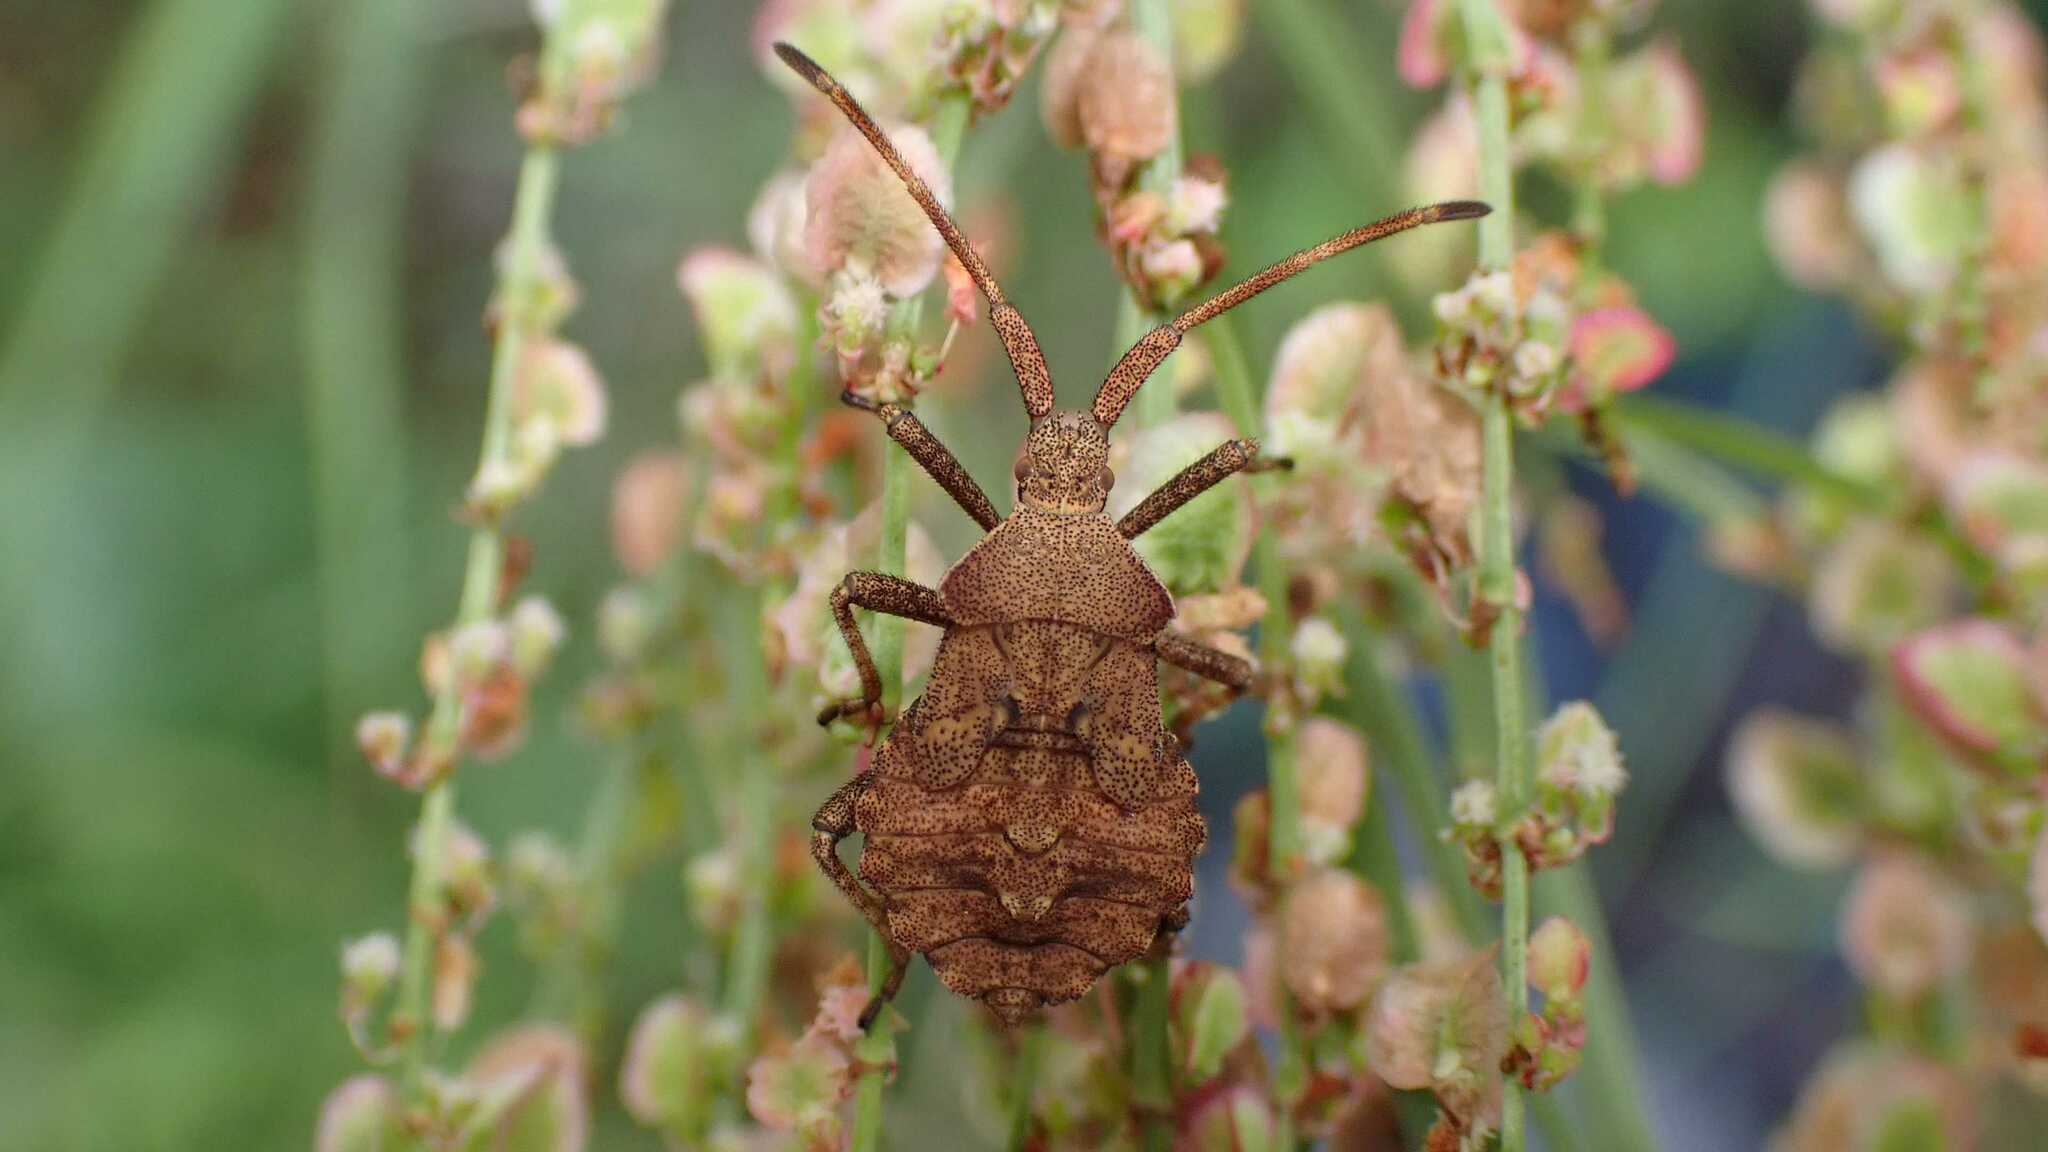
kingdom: Animalia
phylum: Arthropoda
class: Insecta
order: Hemiptera
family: Coreidae
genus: Coreus
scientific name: Coreus marginatus
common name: Dock bug
